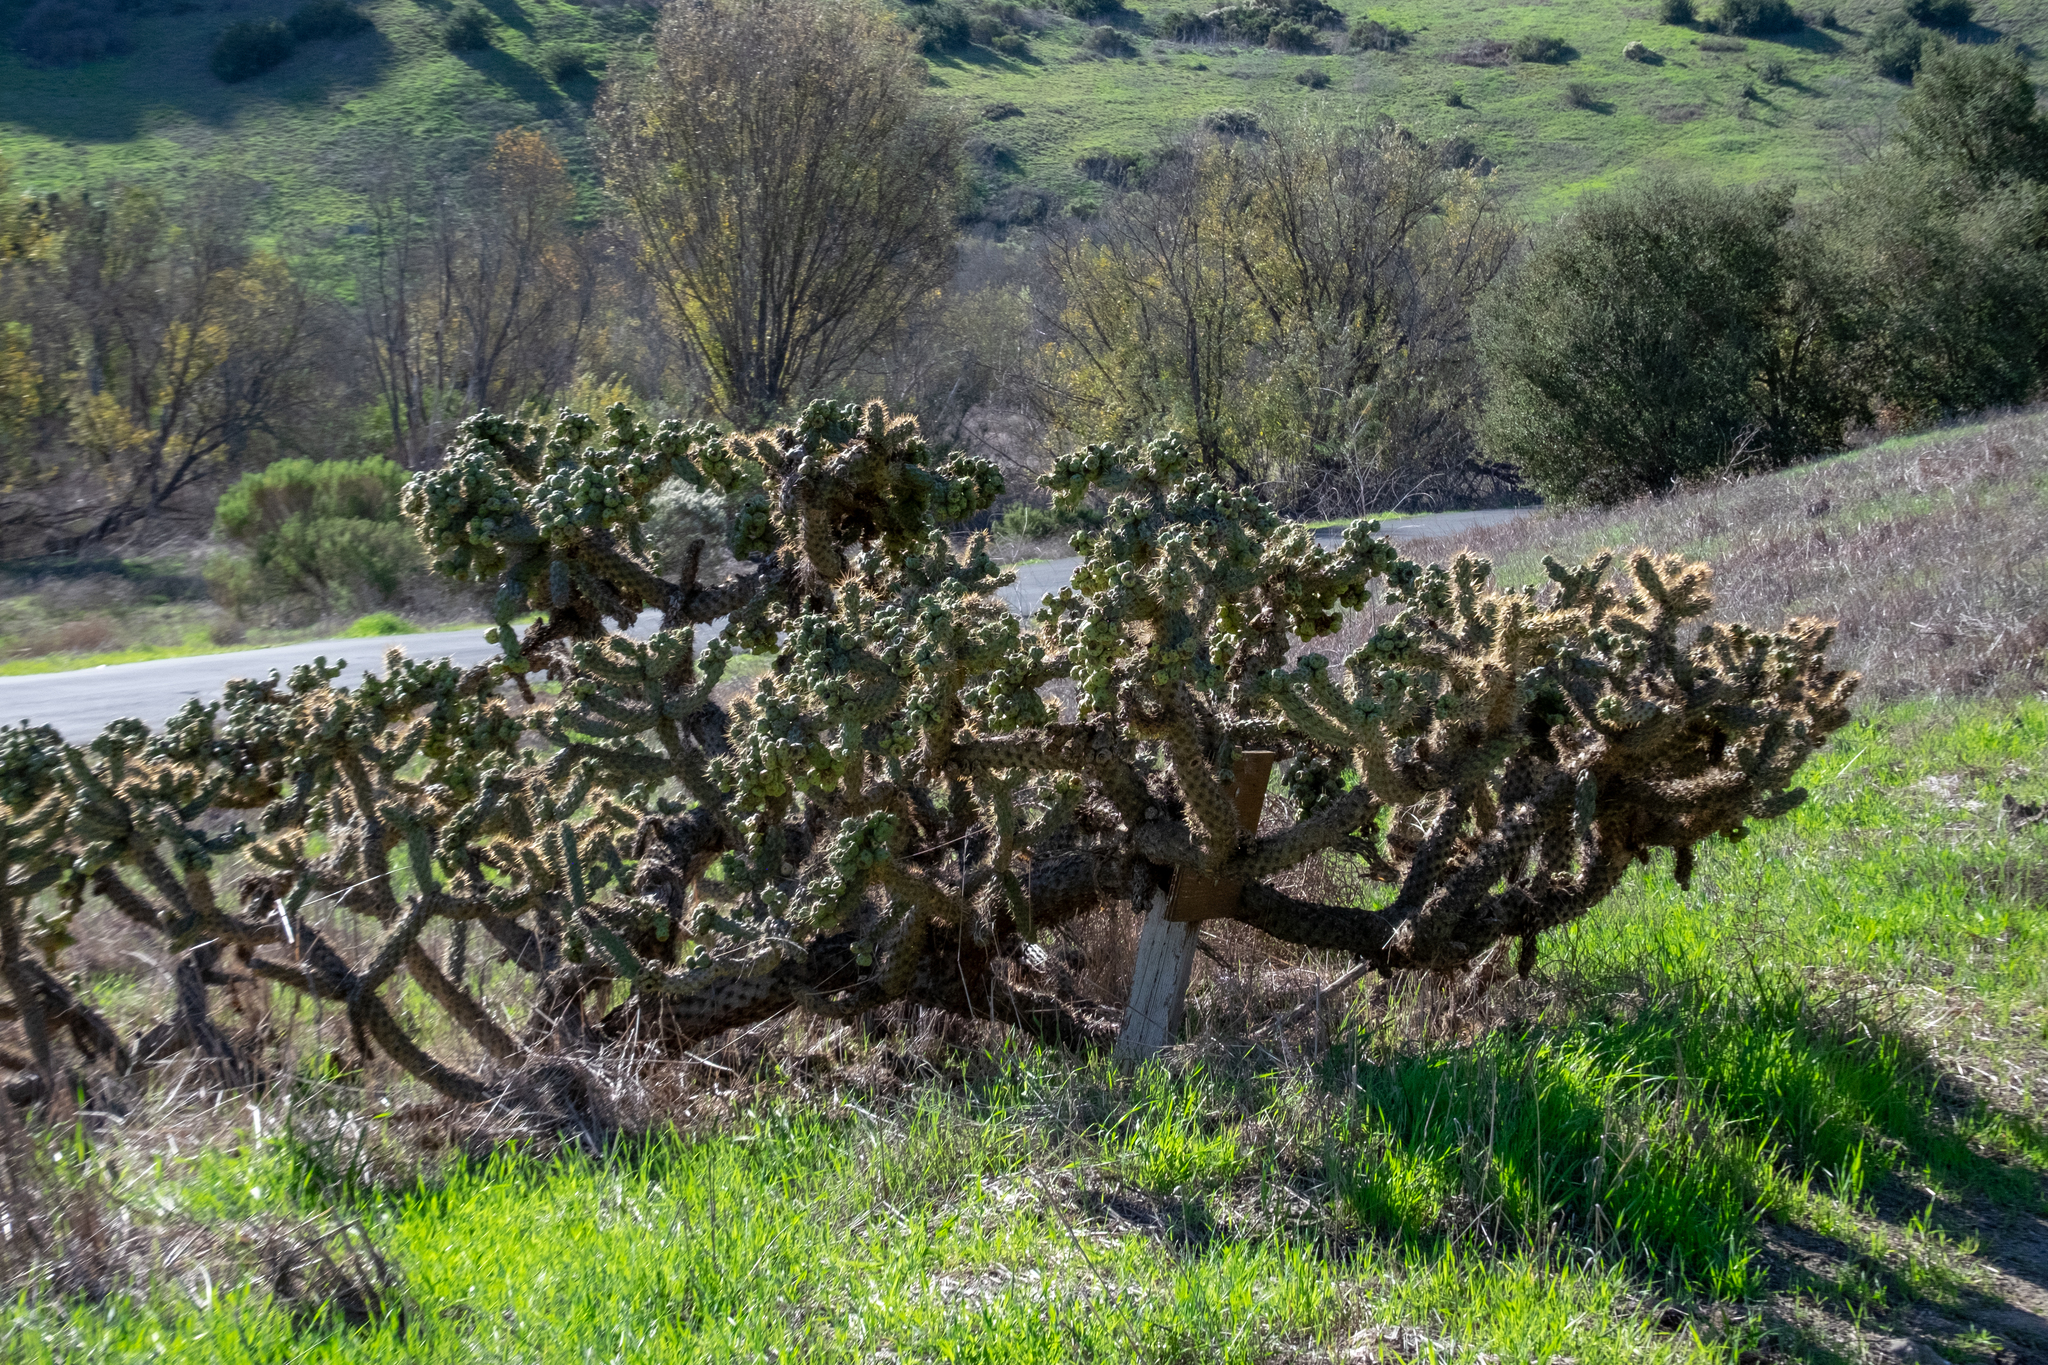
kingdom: Plantae
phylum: Tracheophyta
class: Magnoliopsida
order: Caryophyllales
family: Cactaceae
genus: Cylindropuntia
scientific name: Cylindropuntia prolifera
